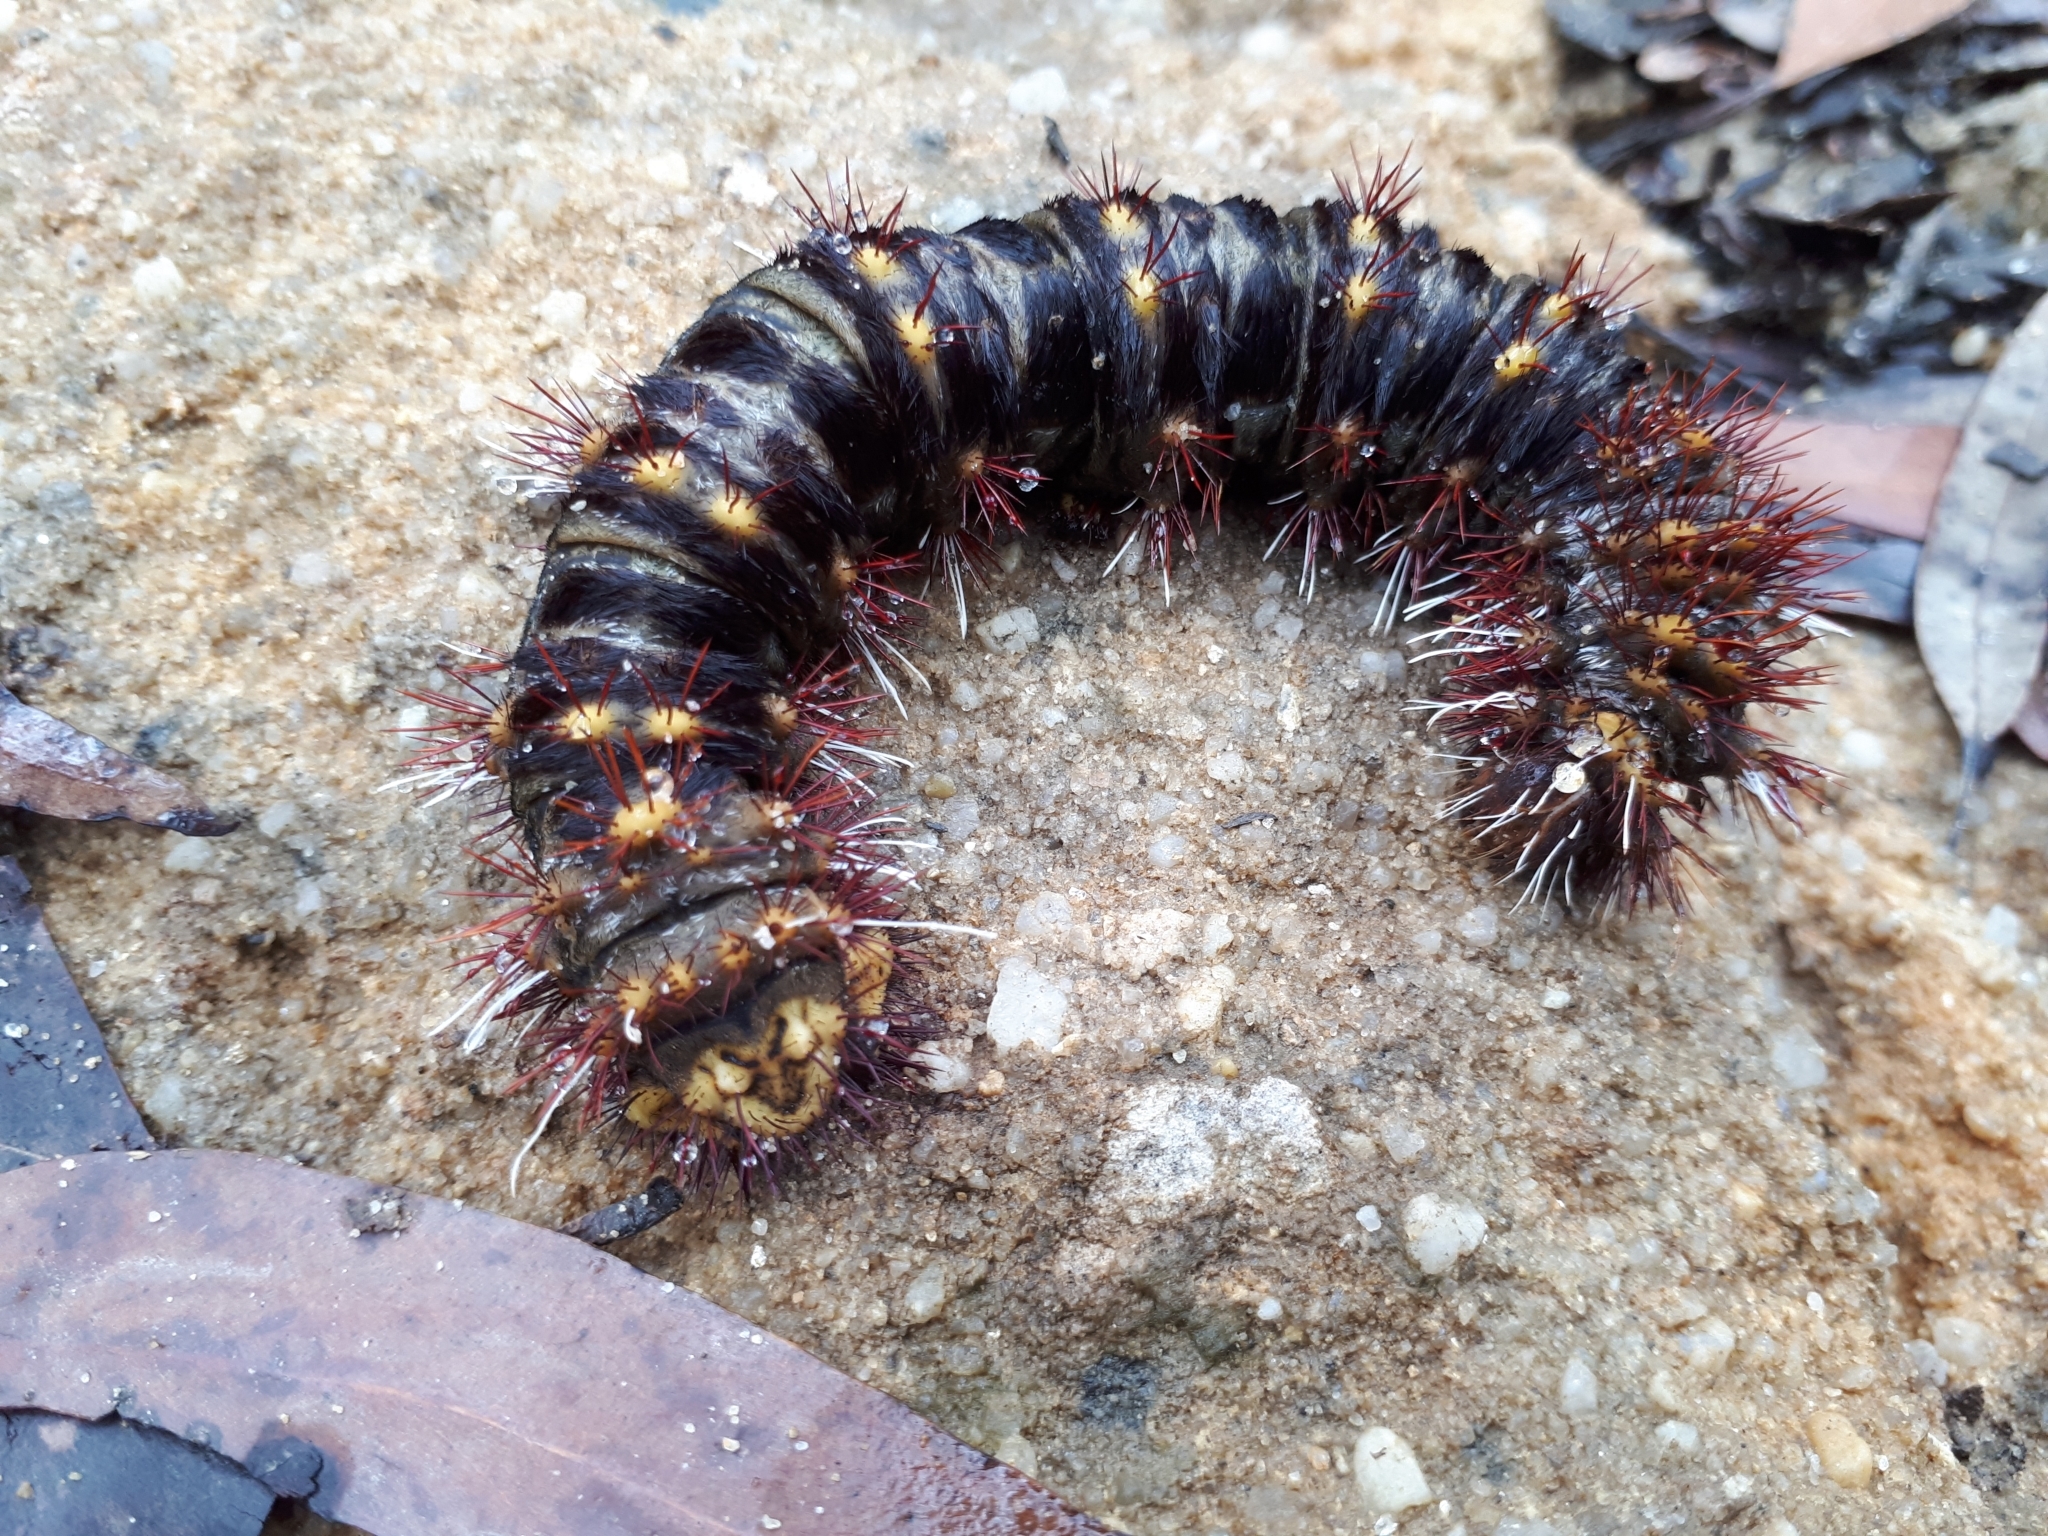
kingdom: Animalia
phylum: Arthropoda
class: Insecta
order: Lepidoptera
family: Anthelidae
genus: Chelepteryx
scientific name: Chelepteryx collesi
